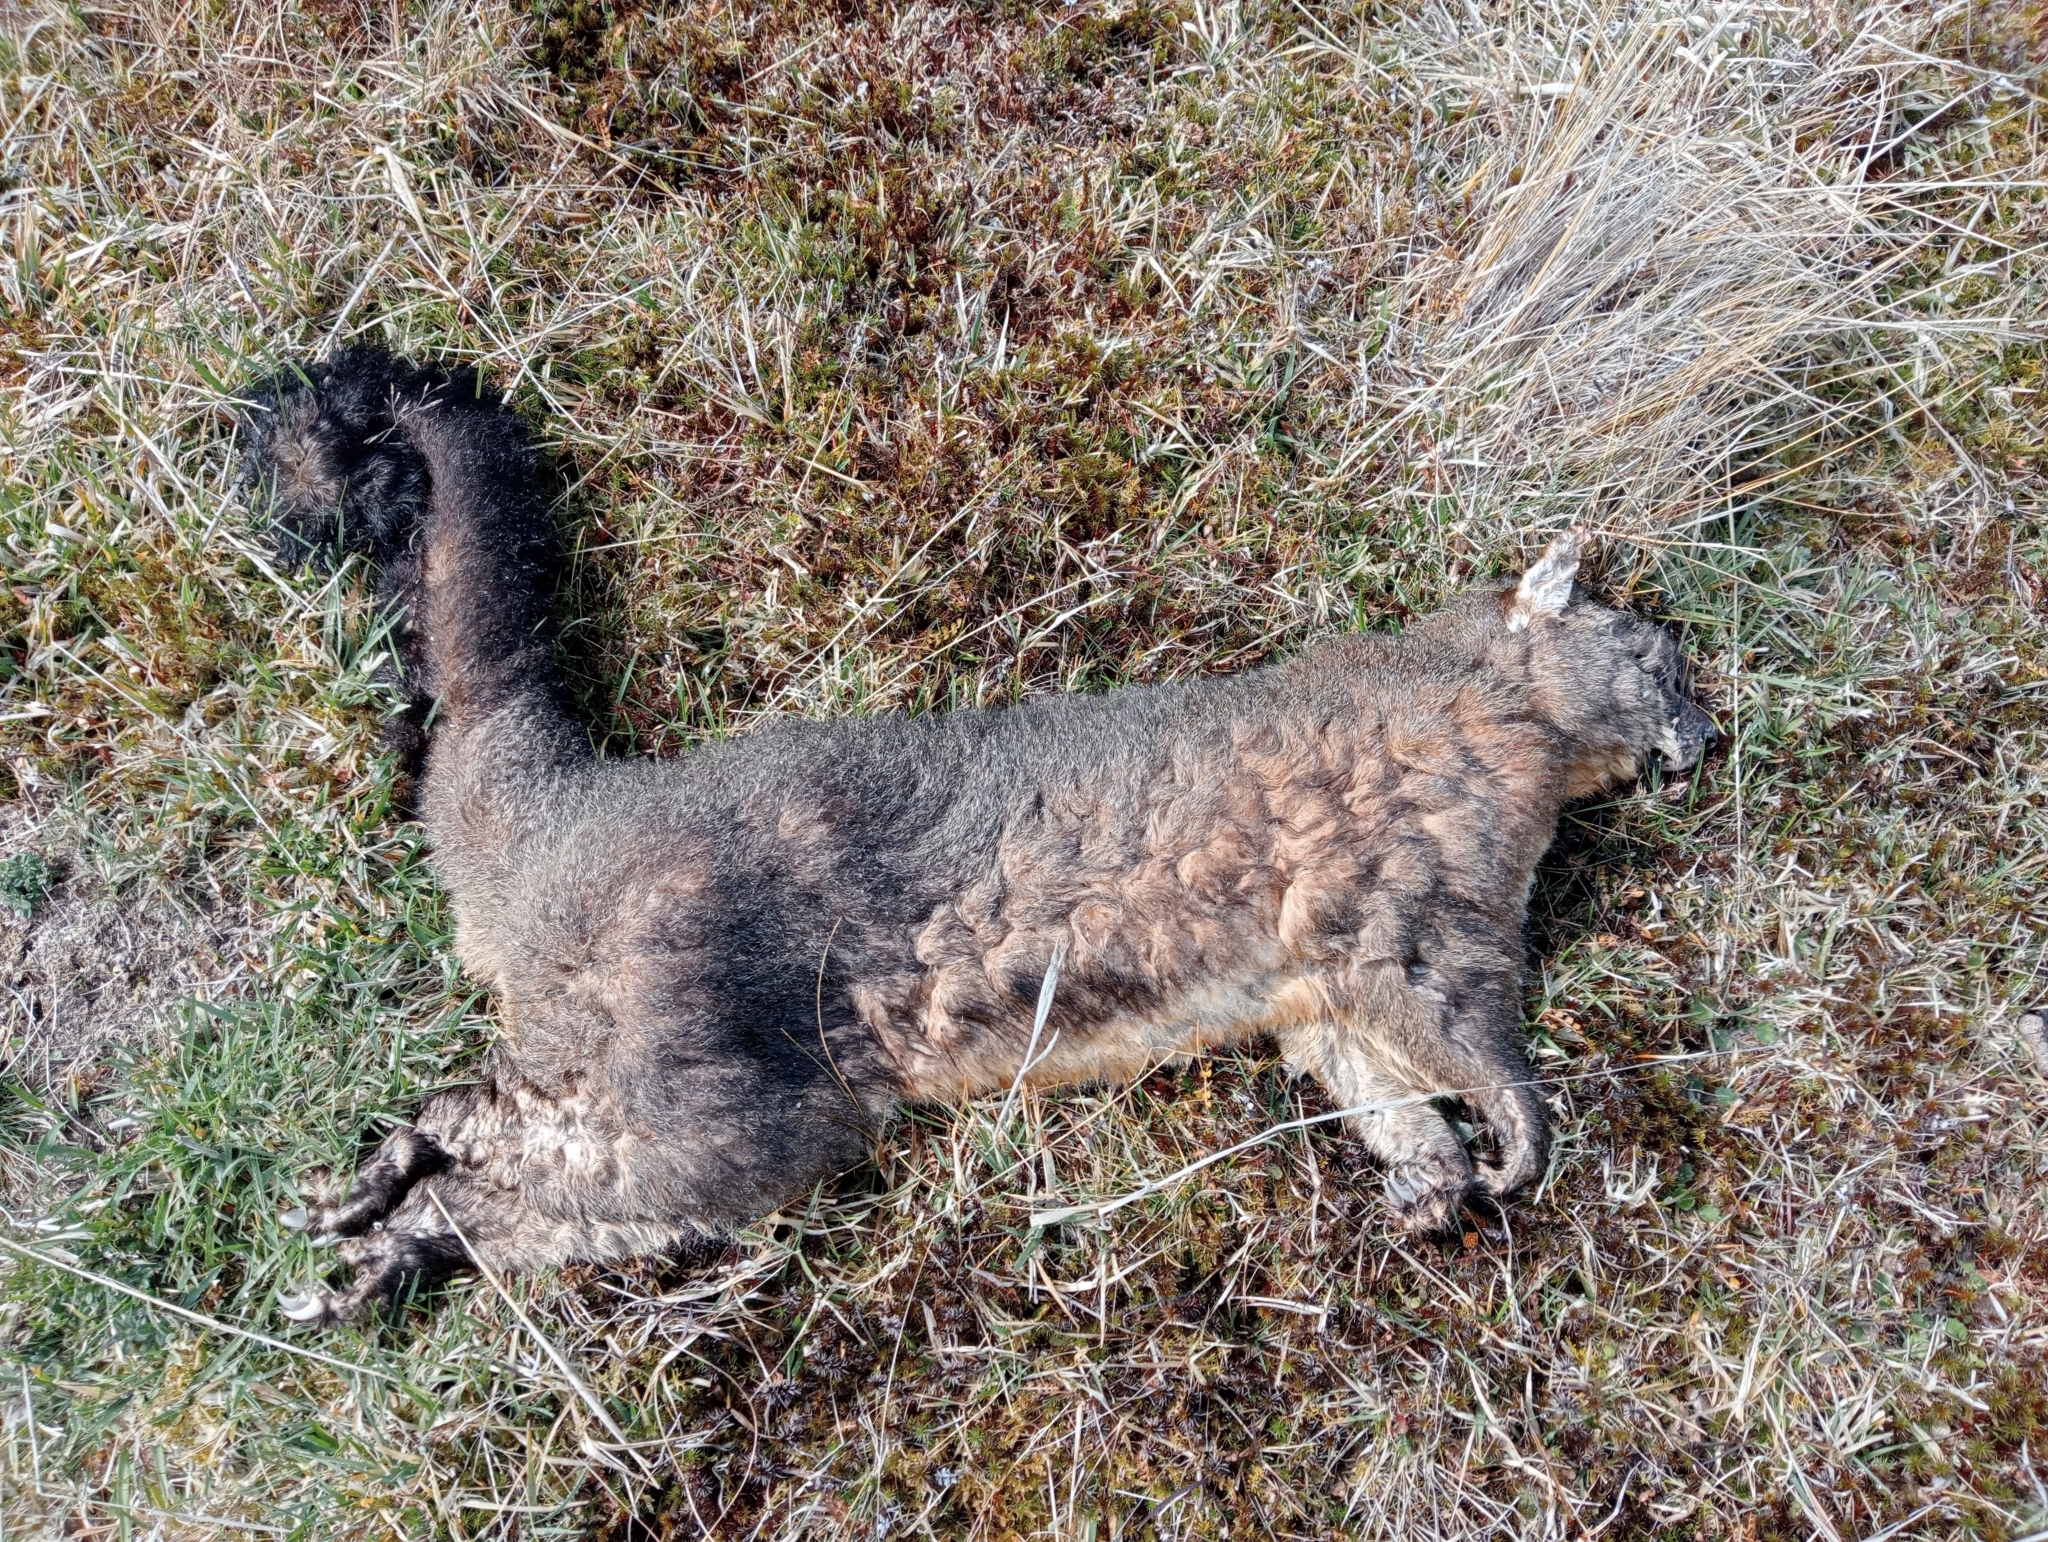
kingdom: Animalia
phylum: Chordata
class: Mammalia
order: Diprotodontia
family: Phalangeridae
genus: Trichosurus
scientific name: Trichosurus vulpecula
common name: Common brushtail
